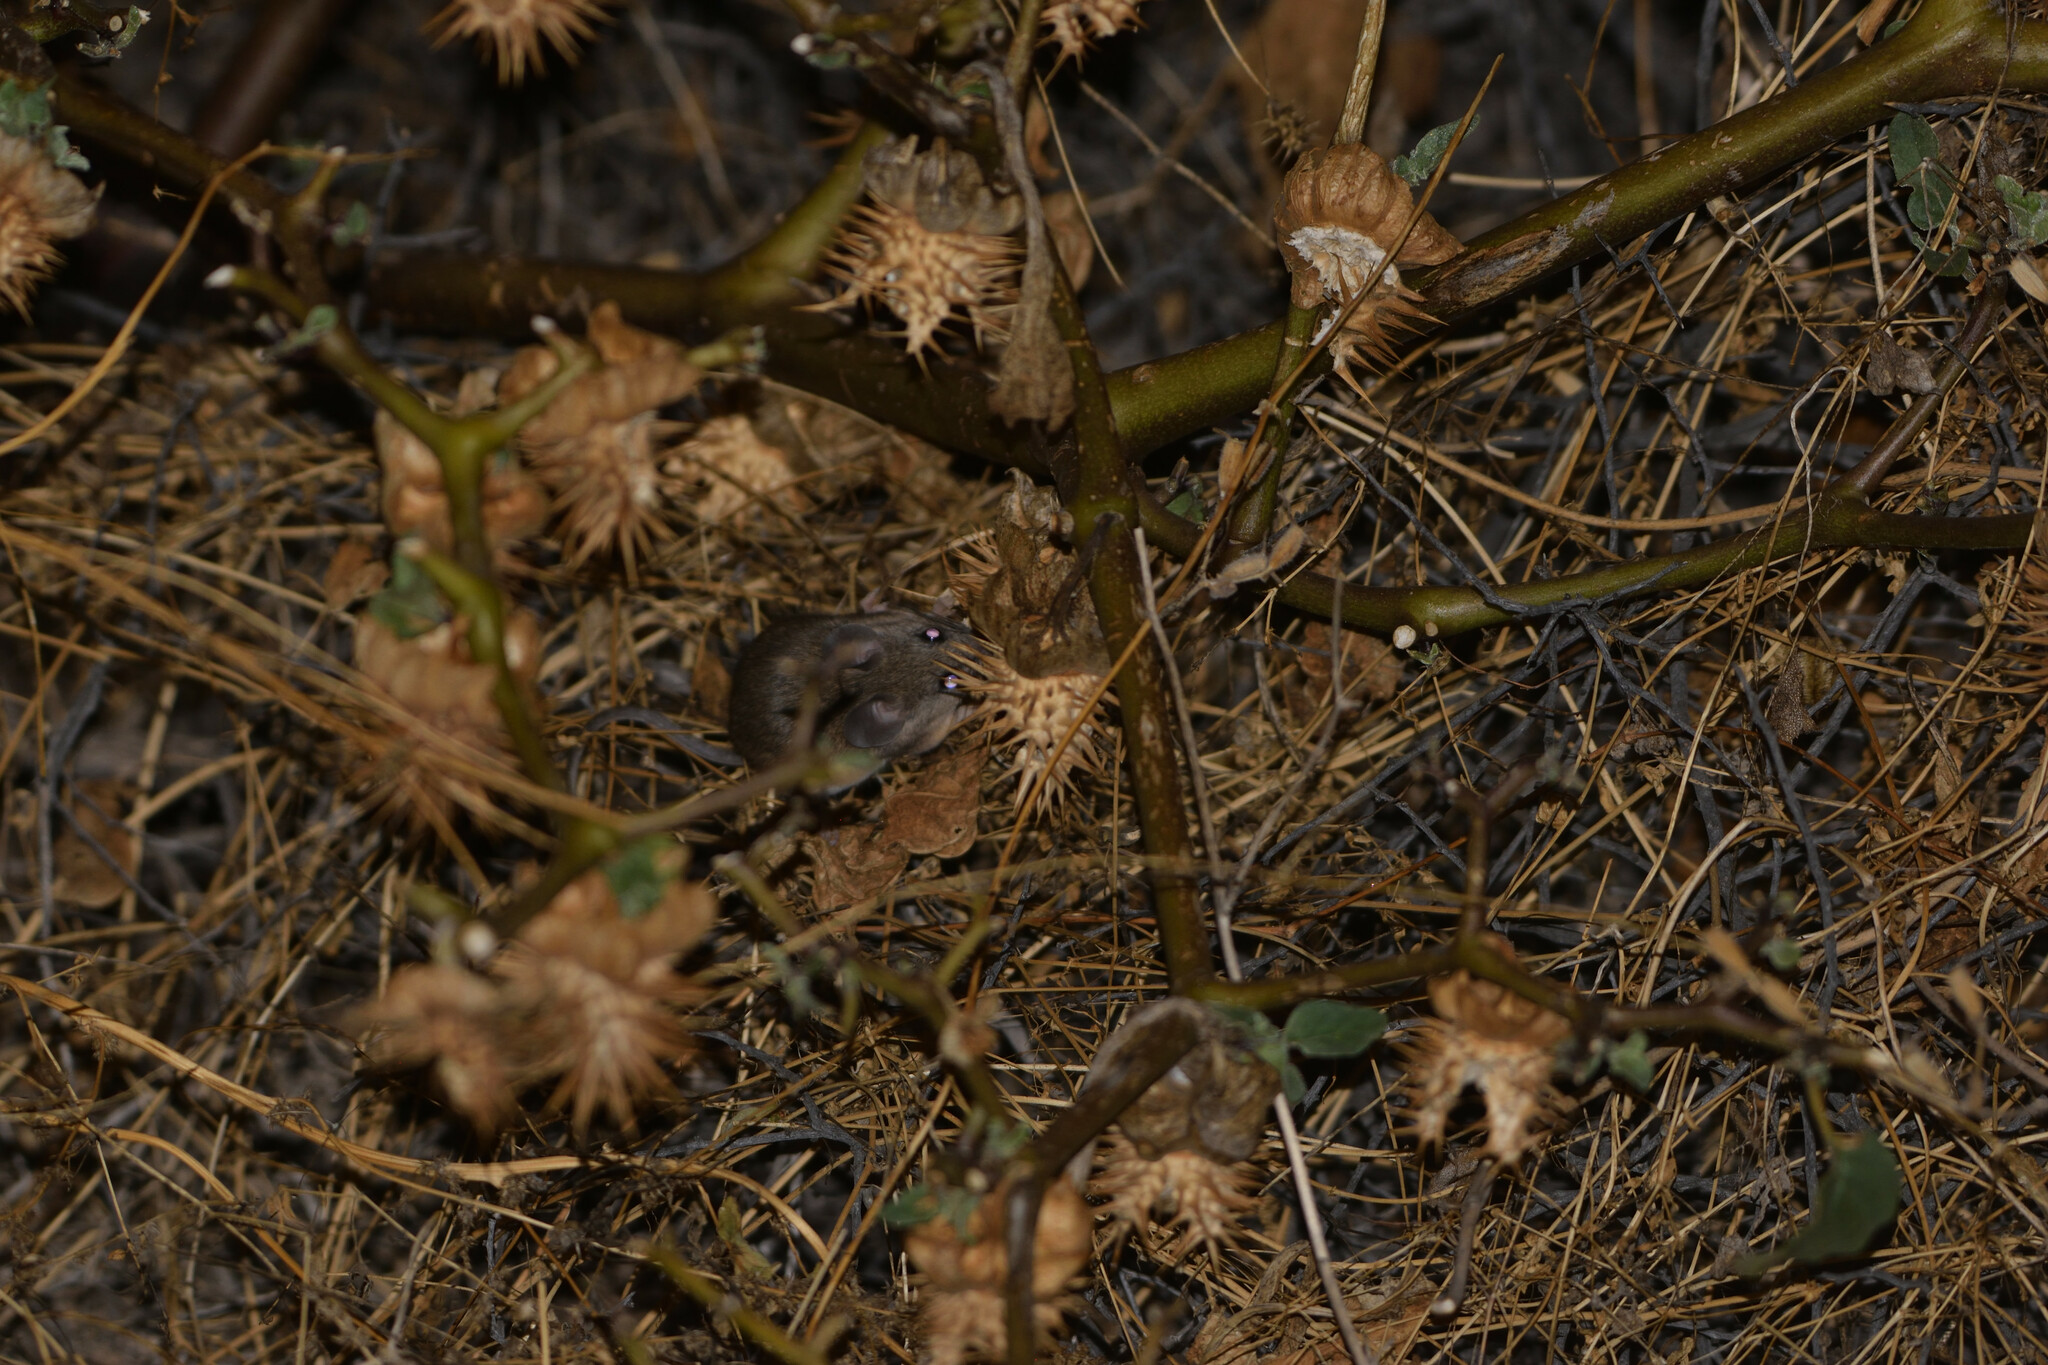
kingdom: Animalia
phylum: Chordata
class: Mammalia
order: Rodentia
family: Cricetidae
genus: Peromyscus
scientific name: Peromyscus fraterculus
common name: Northern baja deermouse
